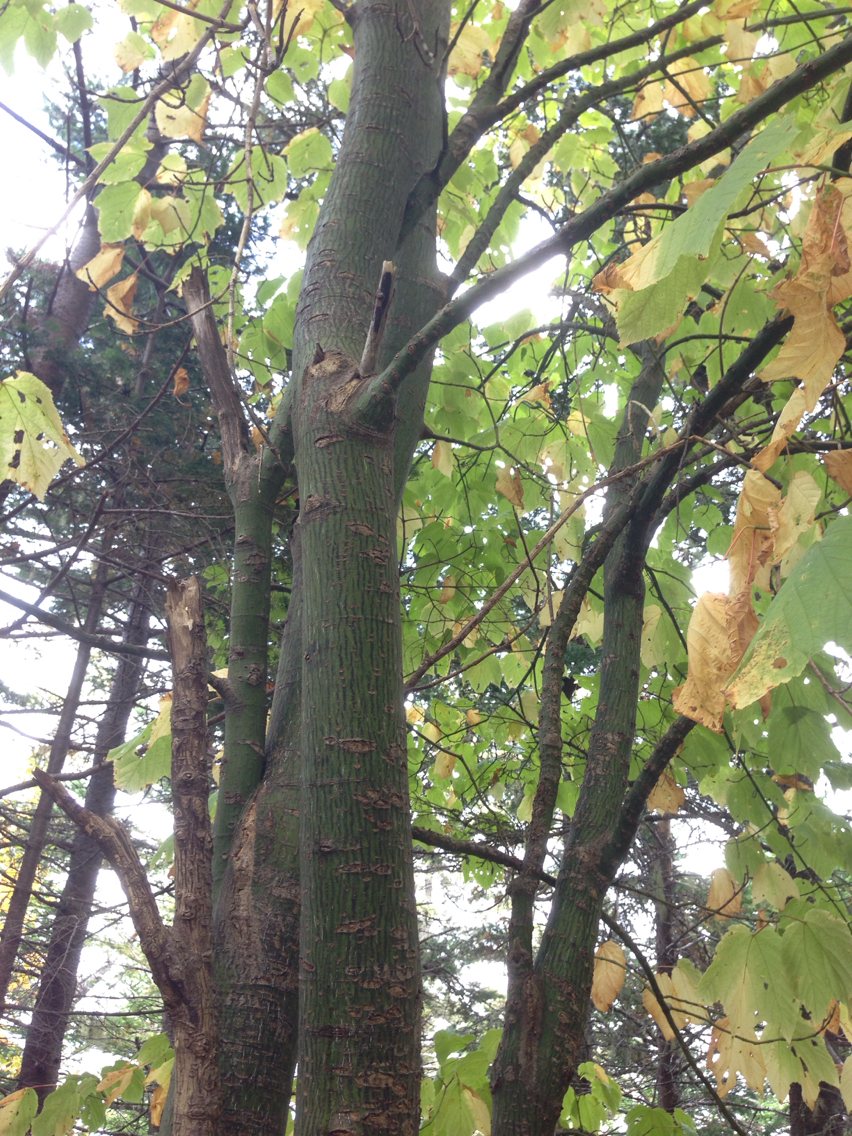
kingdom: Plantae
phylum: Tracheophyta
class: Magnoliopsida
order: Sapindales
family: Sapindaceae
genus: Acer
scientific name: Acer pensylvanicum
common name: Moosewood
